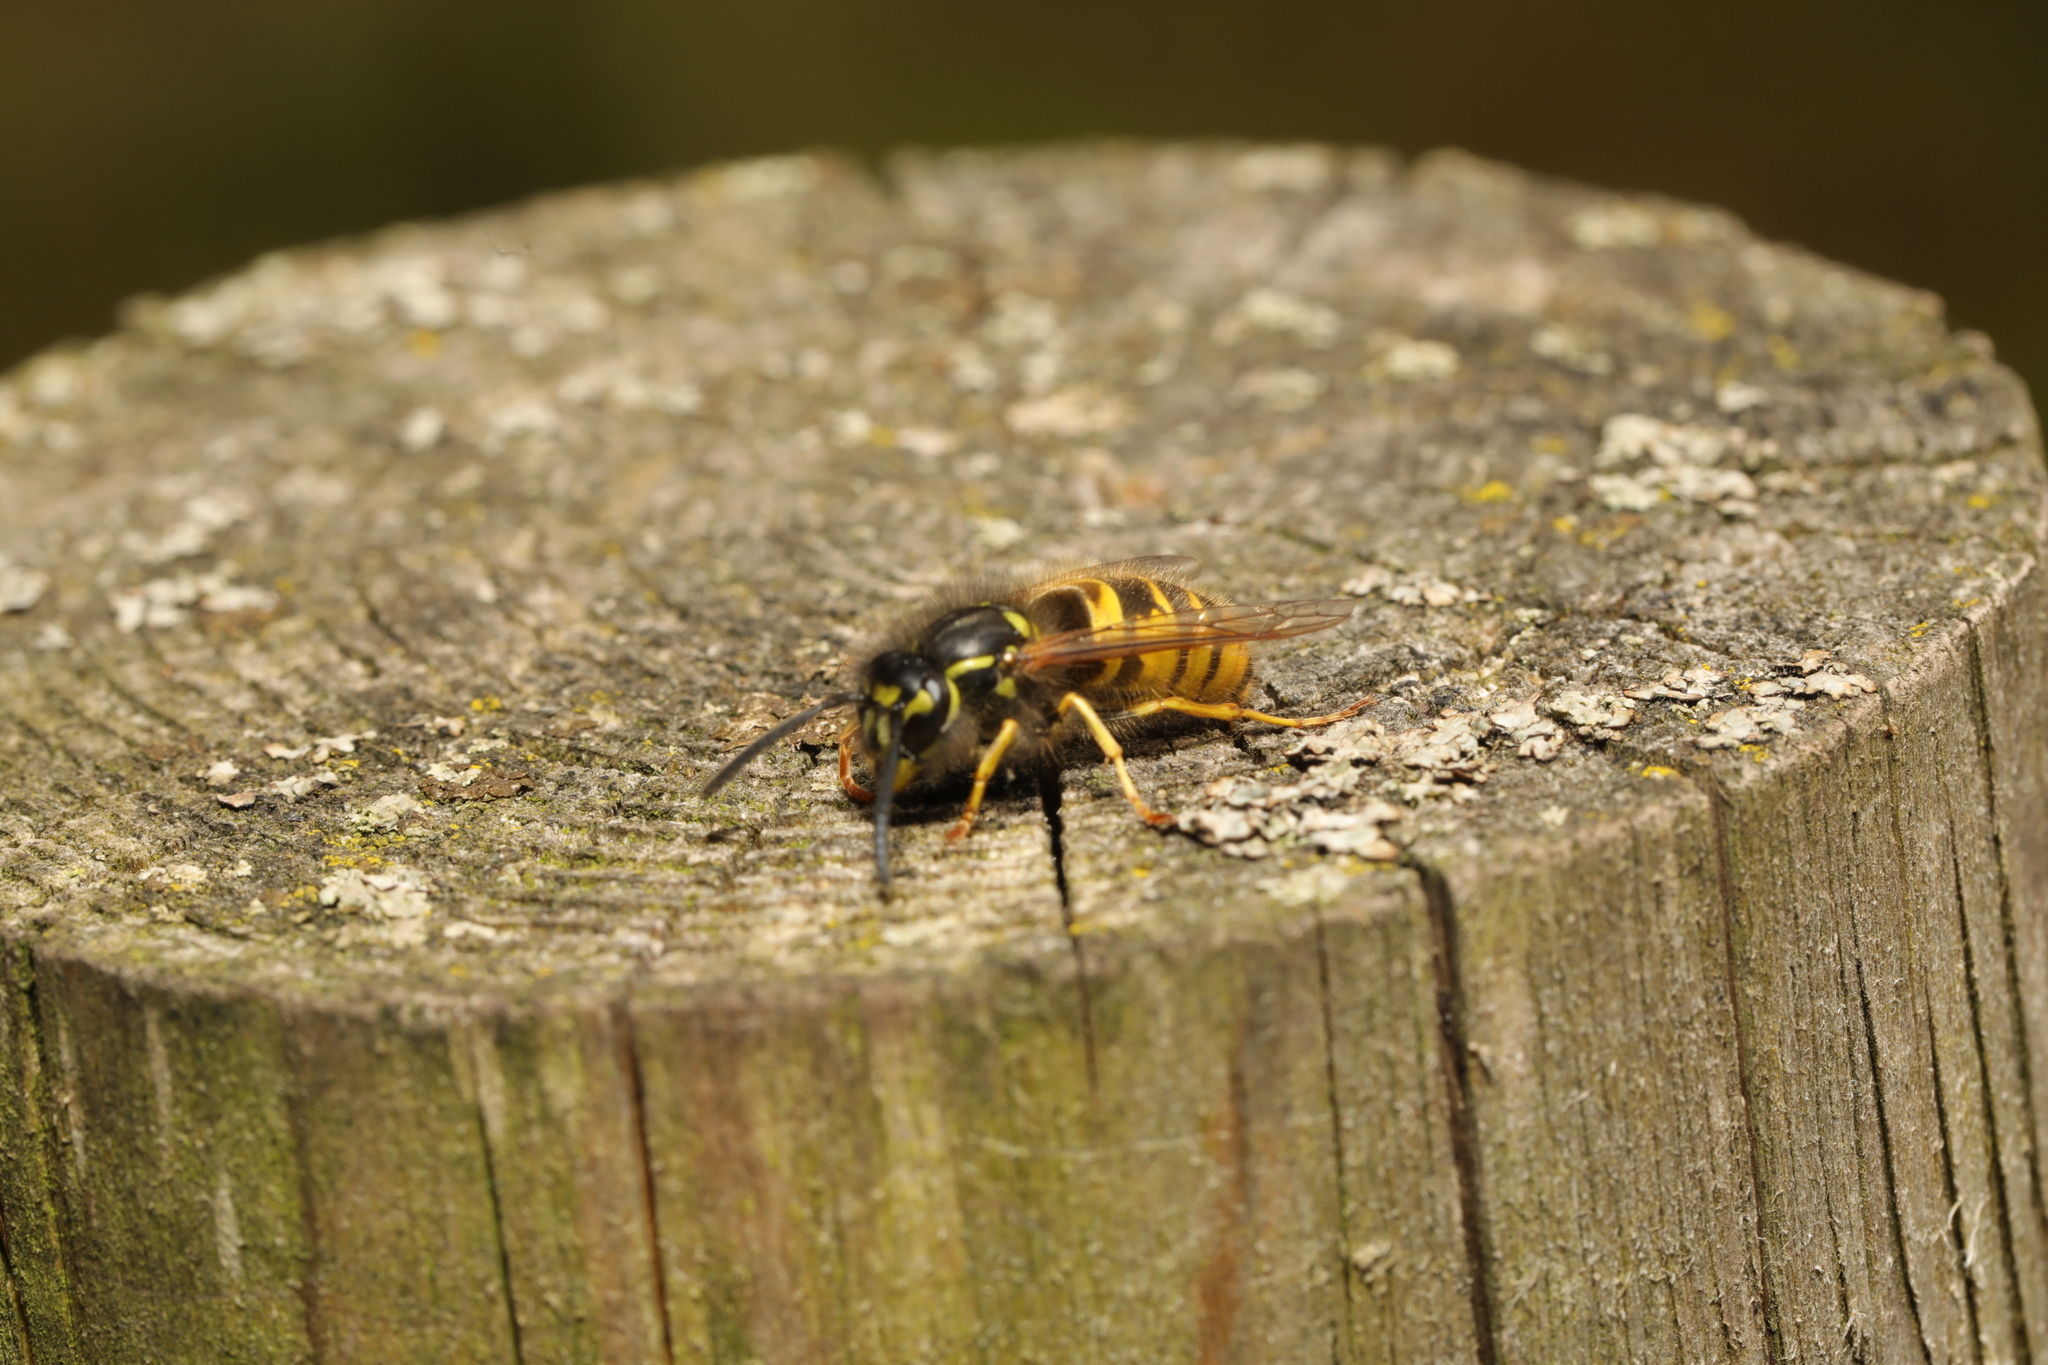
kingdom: Animalia
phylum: Arthropoda
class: Insecta
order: Hymenoptera
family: Vespidae
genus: Vespula
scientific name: Vespula vulgaris
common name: Common wasp
